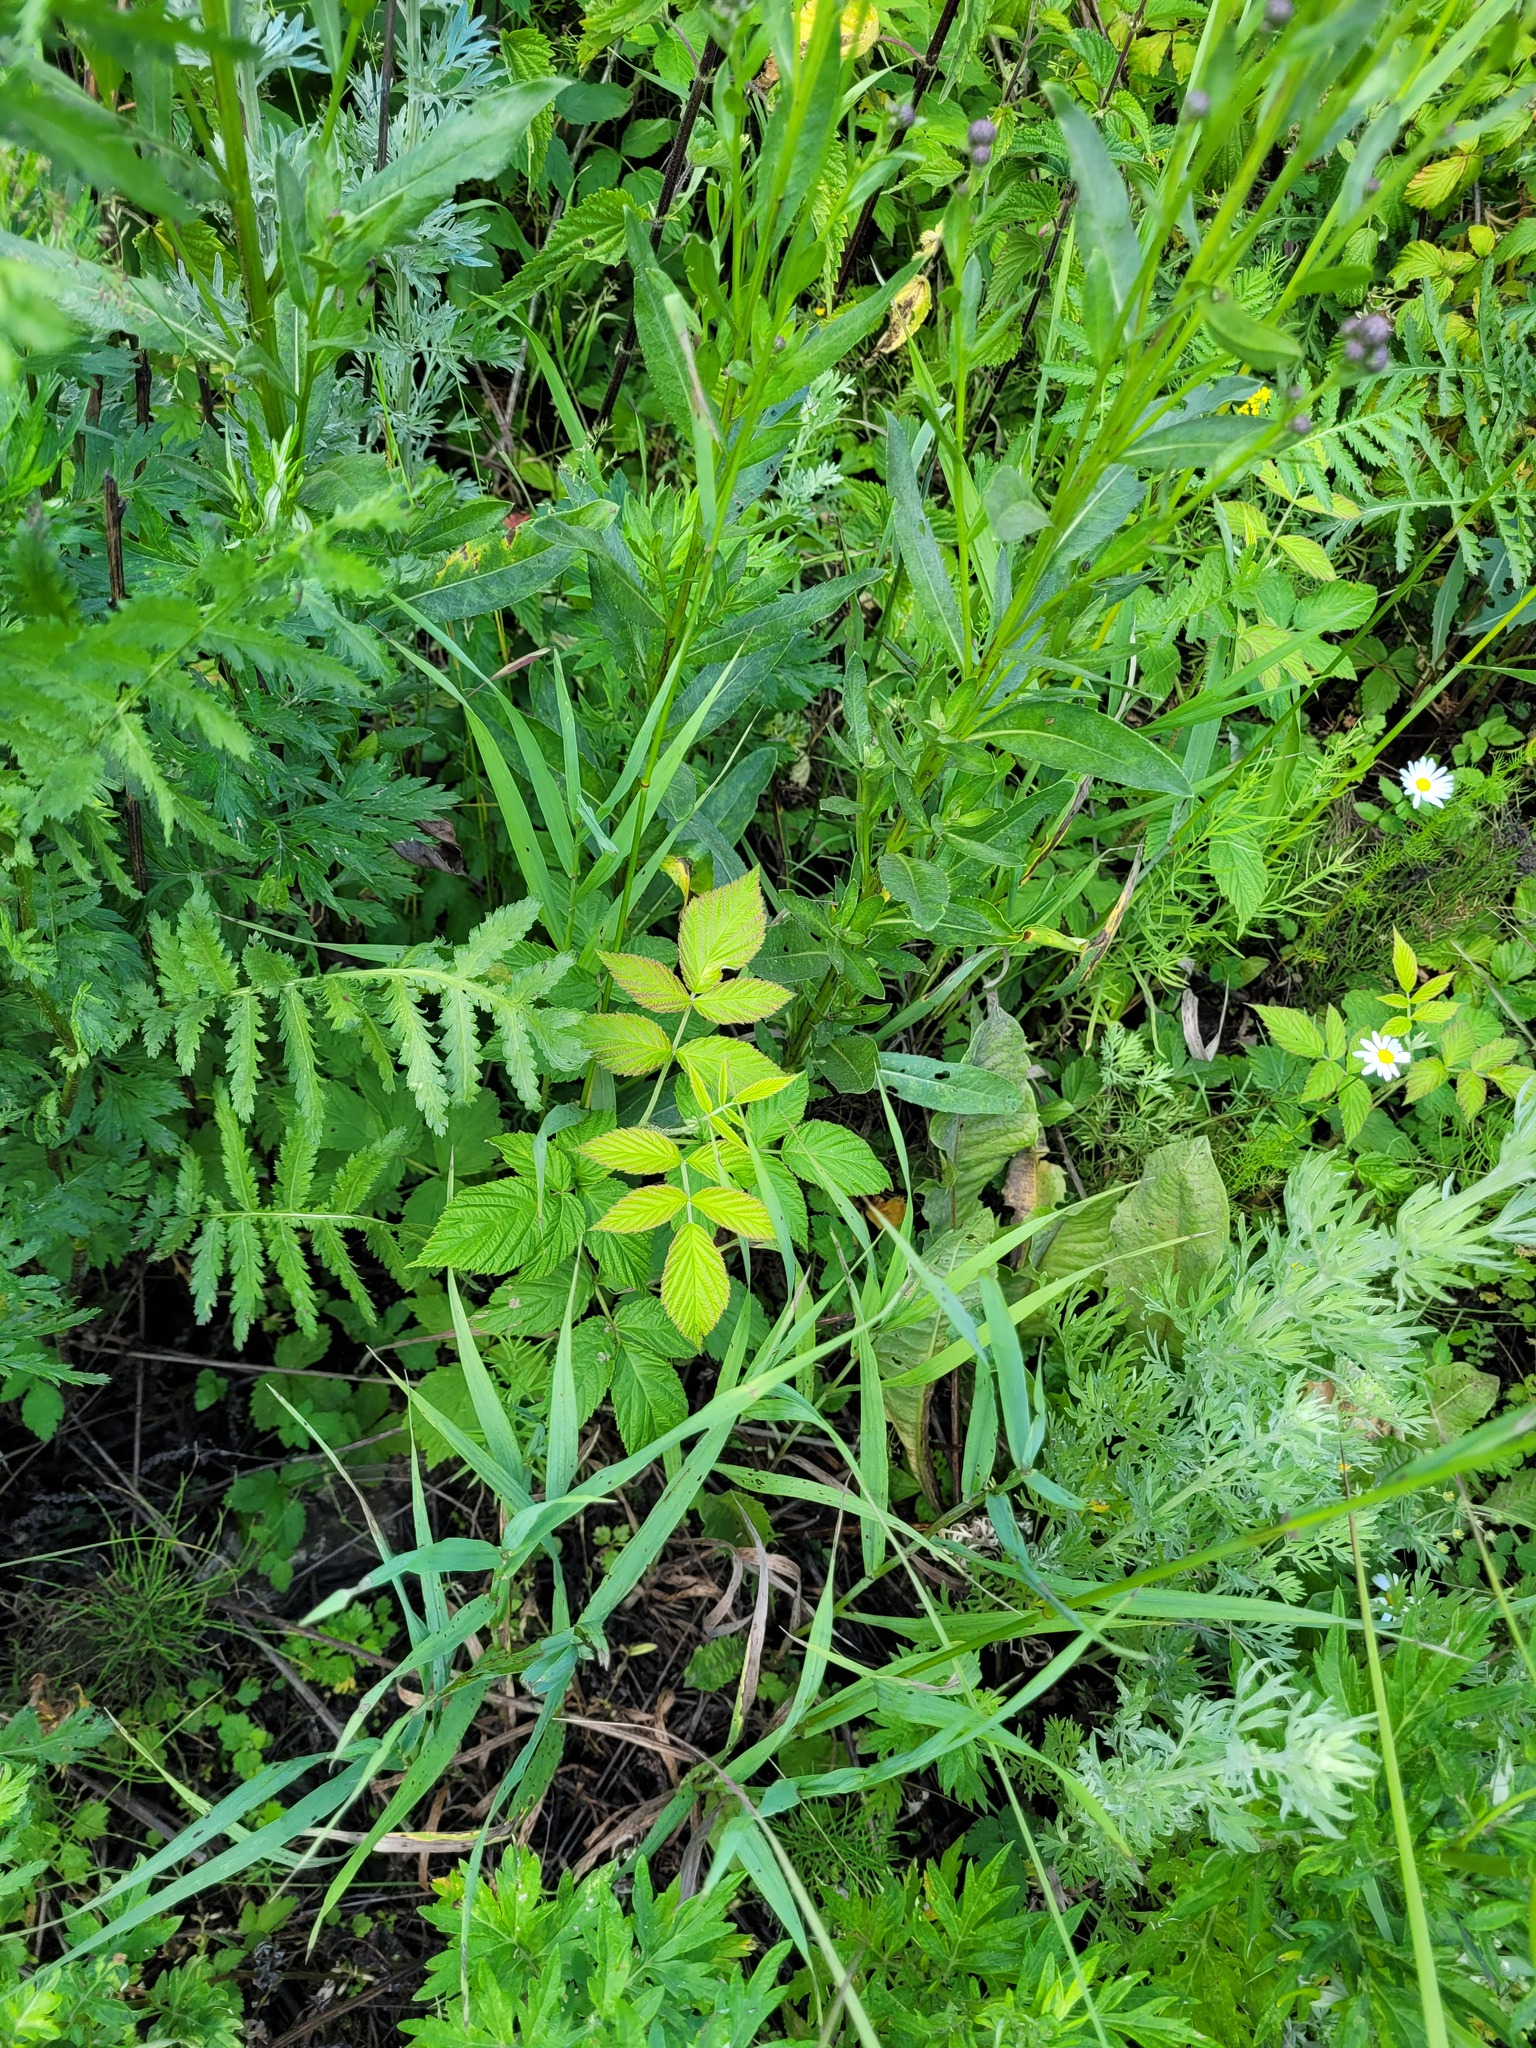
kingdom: Plantae
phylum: Tracheophyta
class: Magnoliopsida
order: Rosales
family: Rosaceae
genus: Rubus
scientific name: Rubus idaeus
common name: Raspberry
